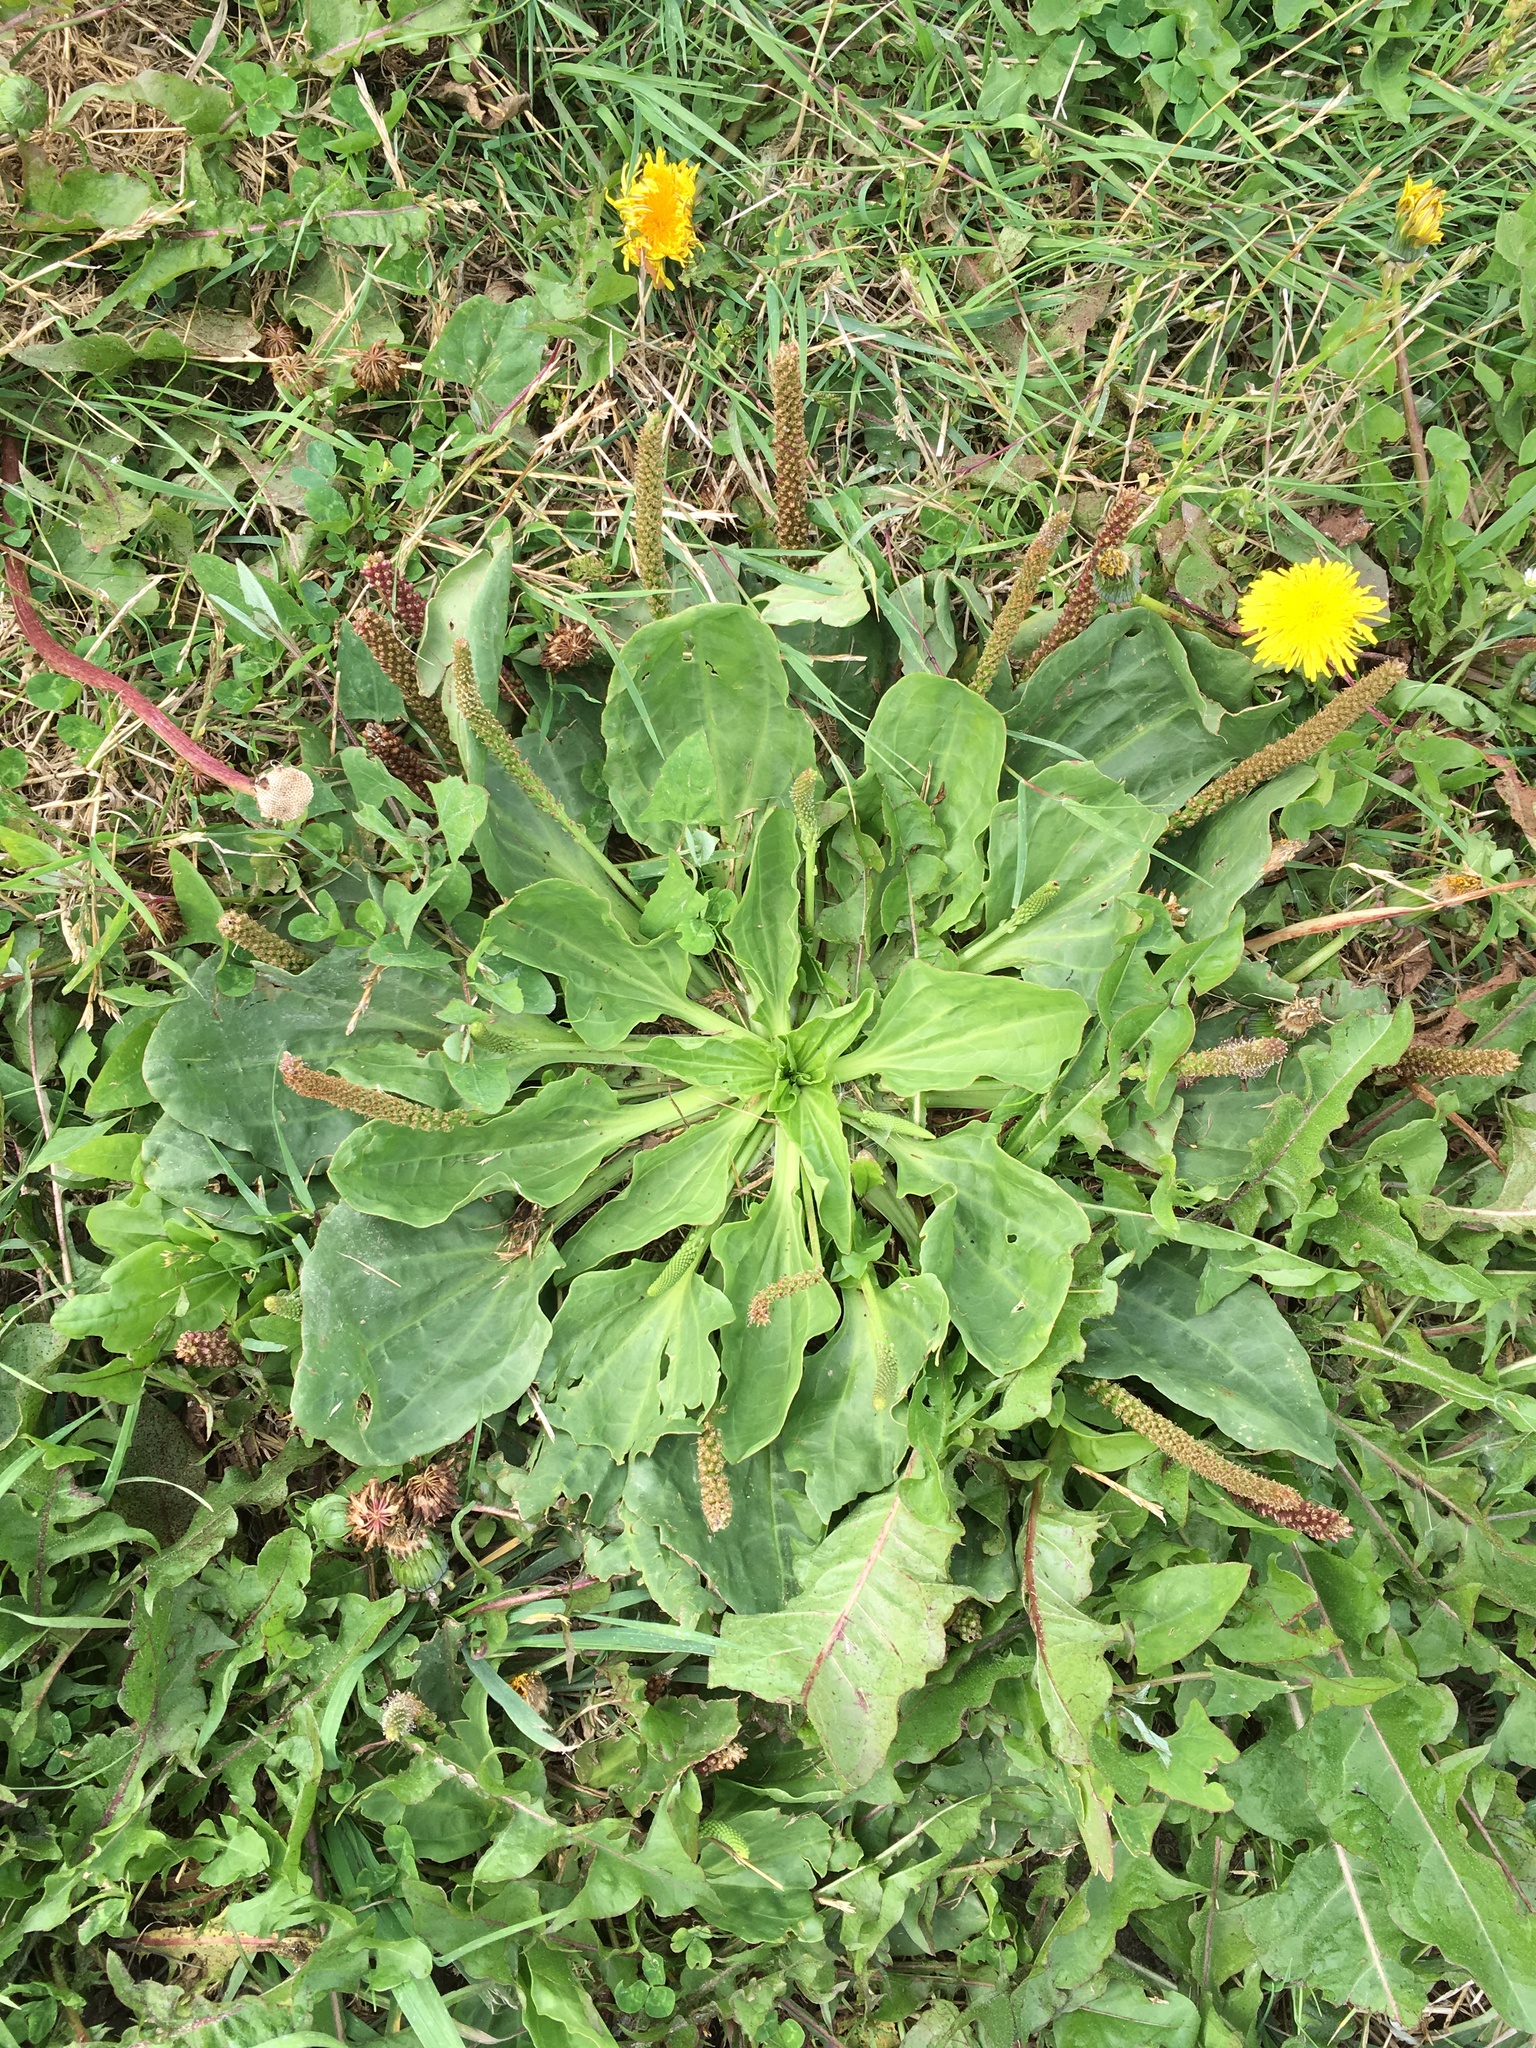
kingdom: Plantae
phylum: Tracheophyta
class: Magnoliopsida
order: Lamiales
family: Plantaginaceae
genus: Plantago
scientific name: Plantago major
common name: Common plantain
